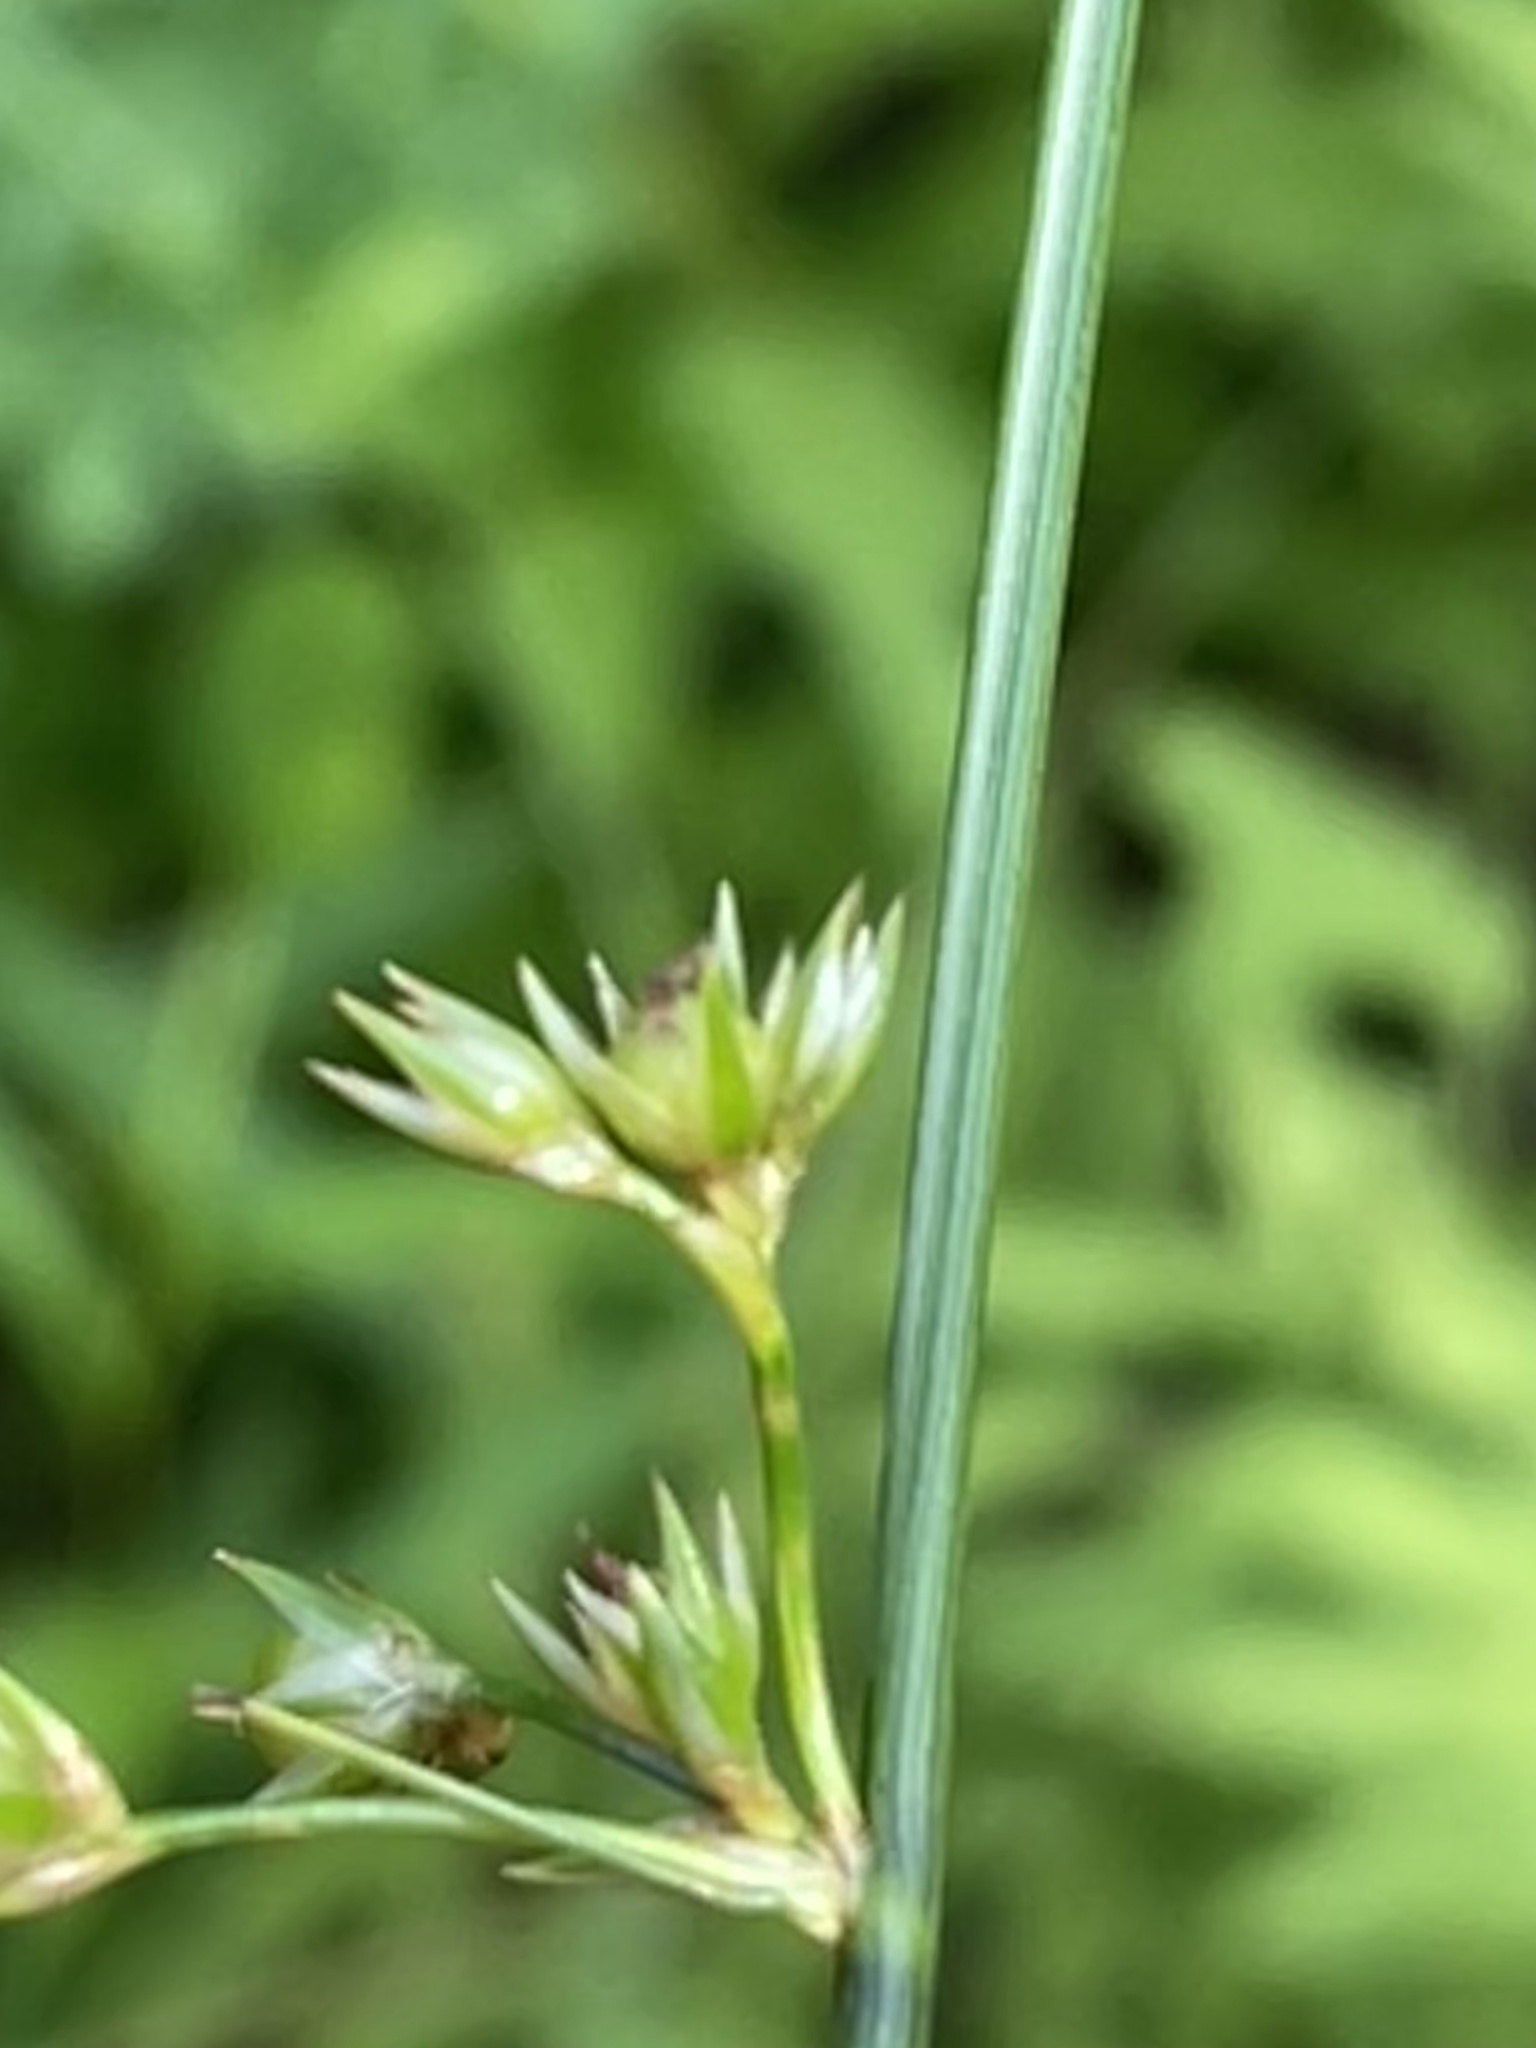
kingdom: Plantae
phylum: Tracheophyta
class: Liliopsida
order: Poales
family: Juncaceae
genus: Juncus
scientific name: Juncus coriaceus
